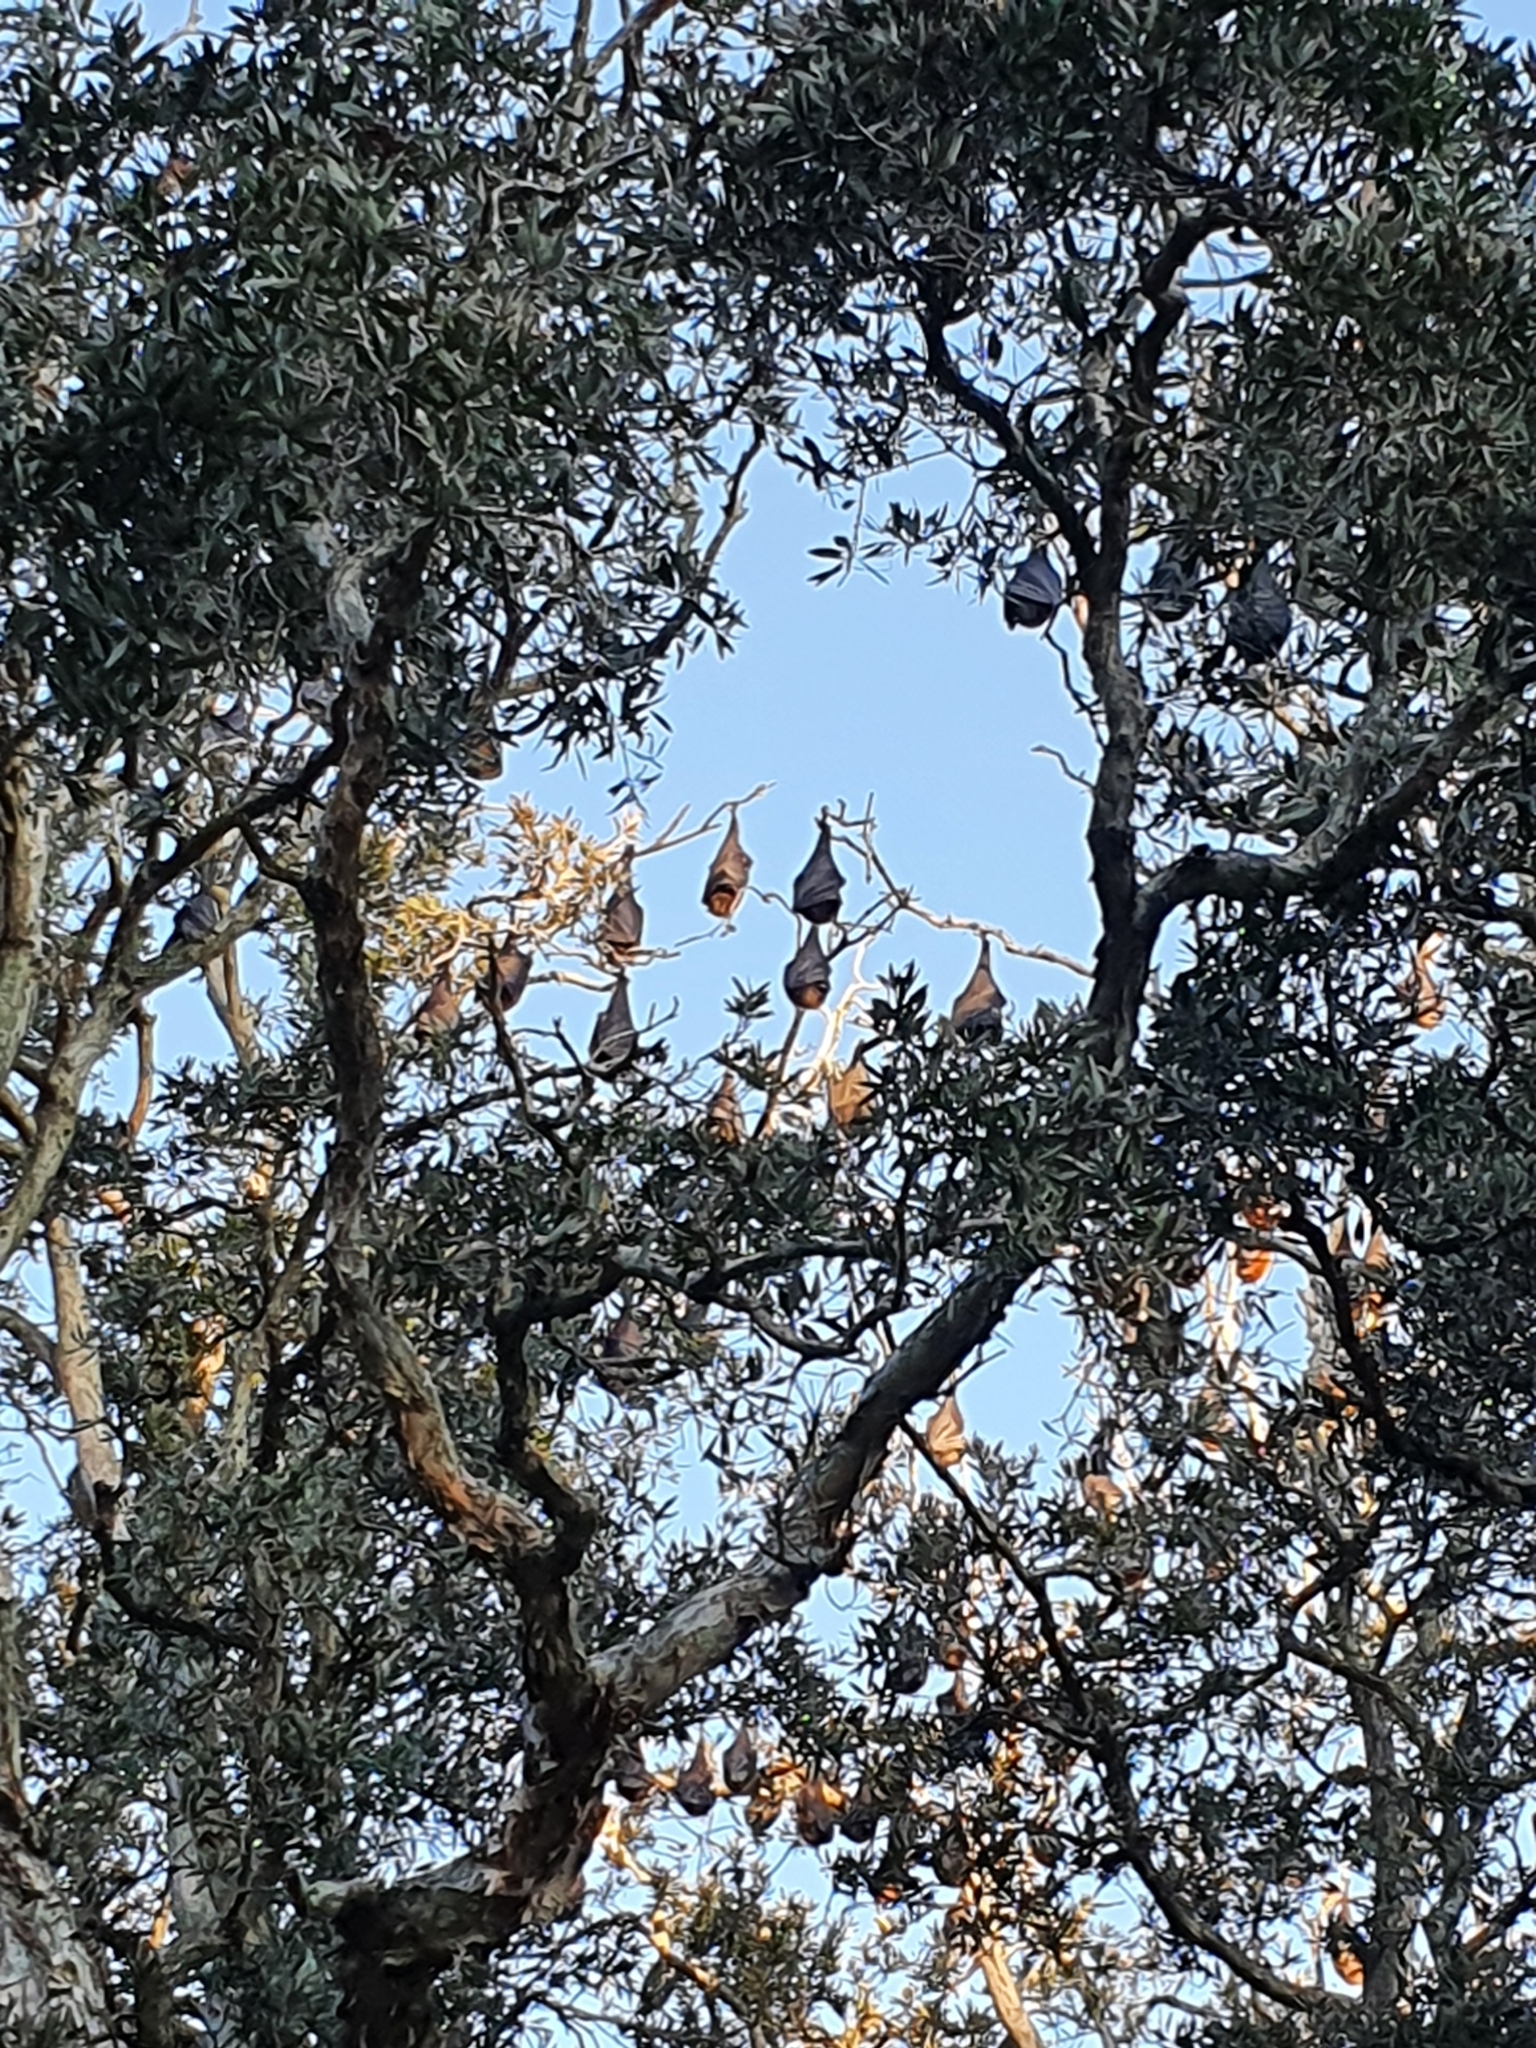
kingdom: Animalia
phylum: Chordata
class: Mammalia
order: Chiroptera
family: Pteropodidae
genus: Pteropus
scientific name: Pteropus poliocephalus
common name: Gray-headed flying fox
